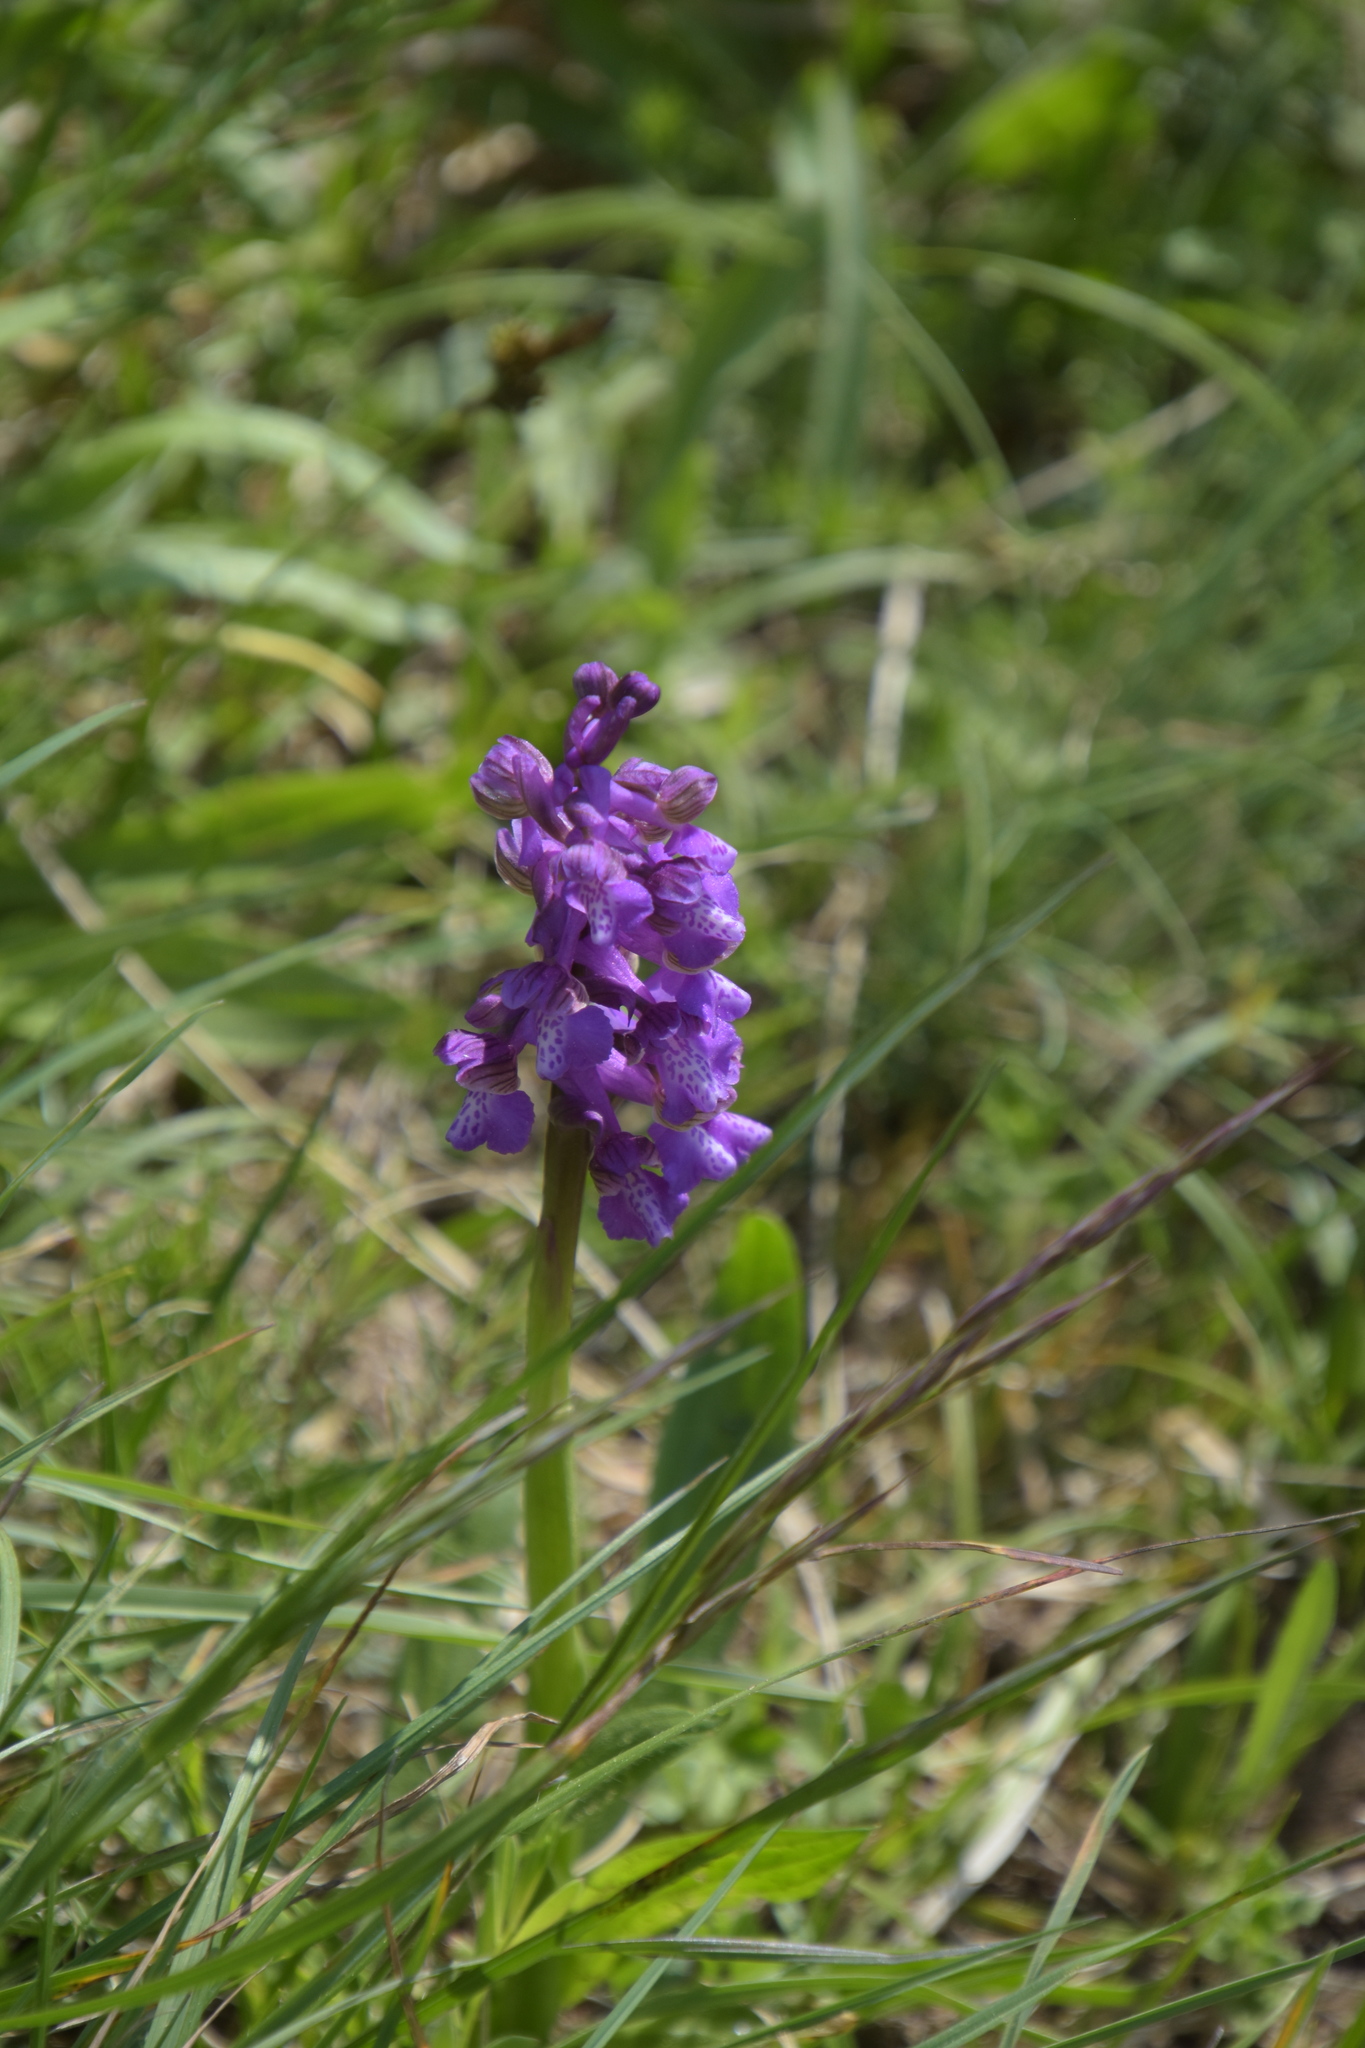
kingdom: Plantae
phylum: Tracheophyta
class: Liliopsida
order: Asparagales
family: Orchidaceae
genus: Anacamptis
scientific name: Anacamptis morio
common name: Green-winged orchid
